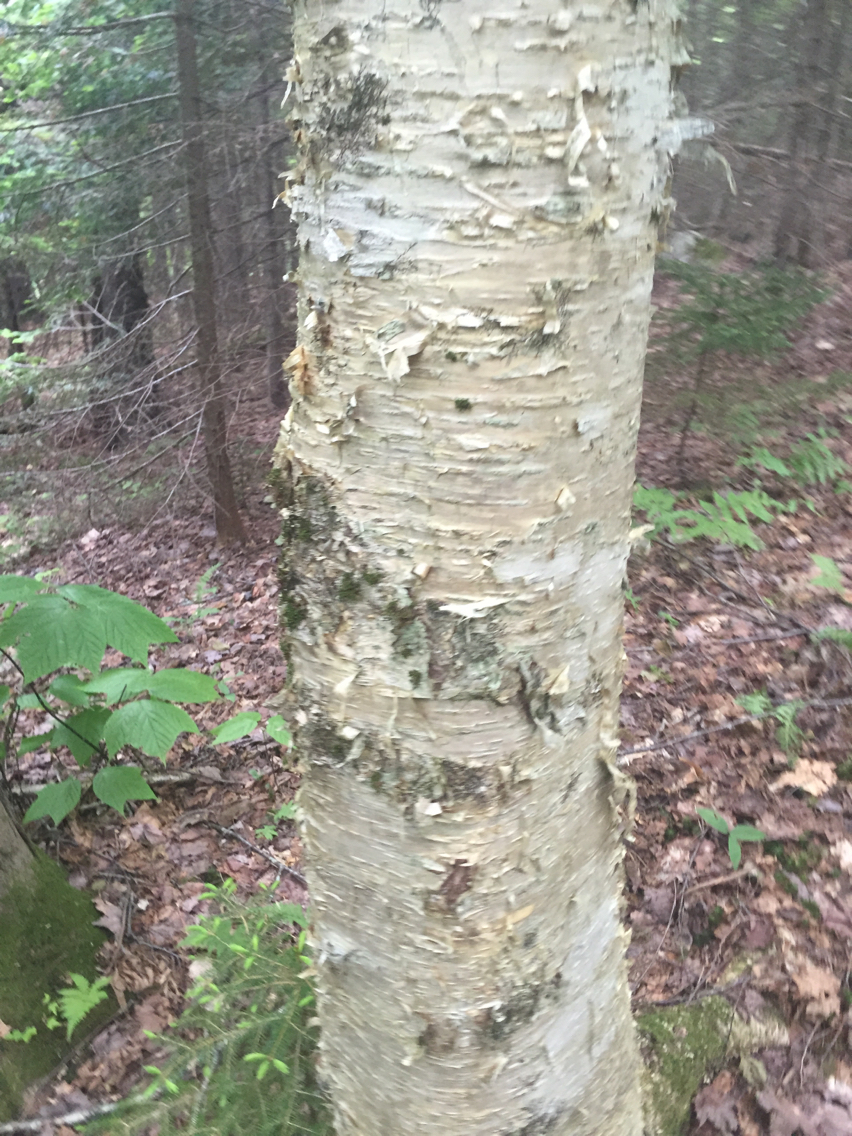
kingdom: Plantae
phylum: Tracheophyta
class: Magnoliopsida
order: Fagales
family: Betulaceae
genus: Betula
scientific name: Betula alleghaniensis
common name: Yellow birch
